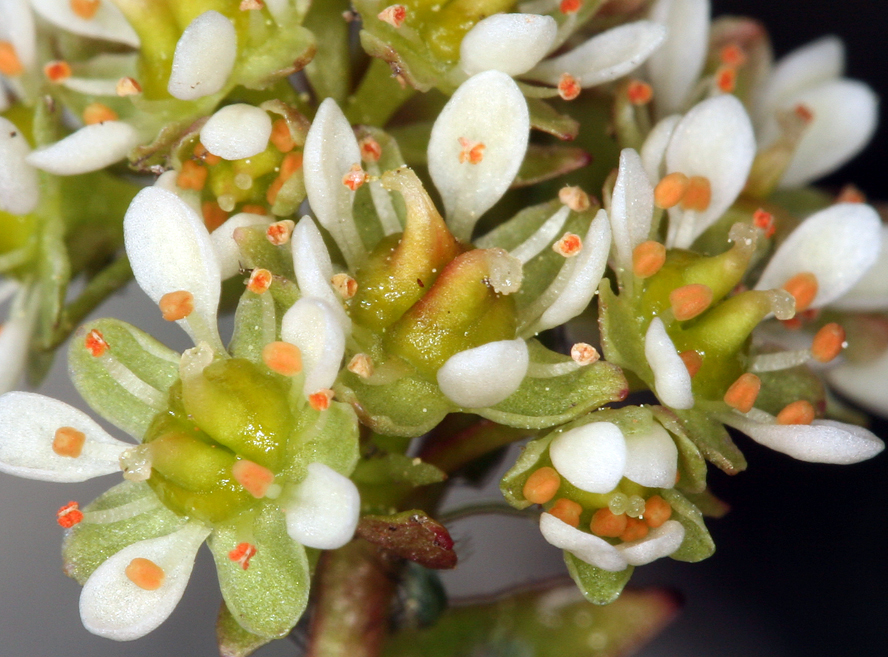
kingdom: Plantae
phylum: Tracheophyta
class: Magnoliopsida
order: Saxifragales
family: Saxifragaceae
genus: Micranthes
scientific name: Micranthes aprica
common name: Sierra saxifrage
